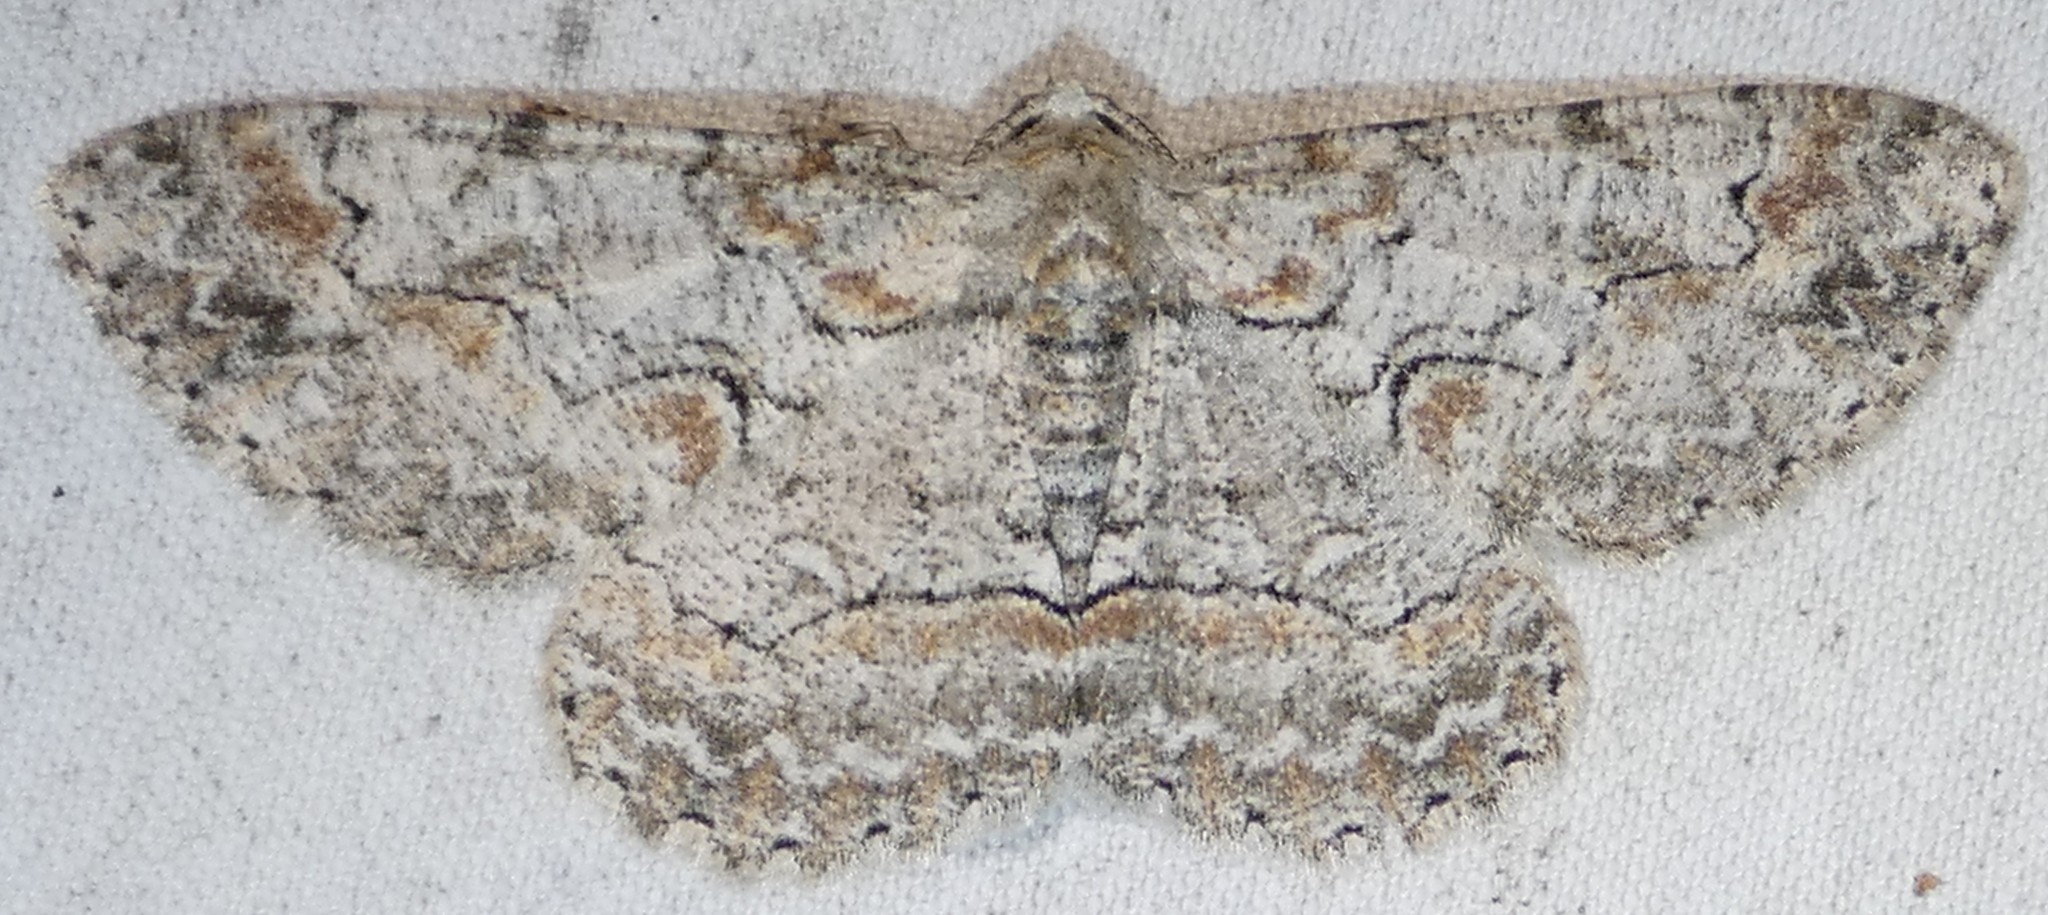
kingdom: Animalia
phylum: Arthropoda
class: Insecta
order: Lepidoptera
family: Geometridae
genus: Iridopsis
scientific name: Iridopsis defectaria
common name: Brown-shaded gray
